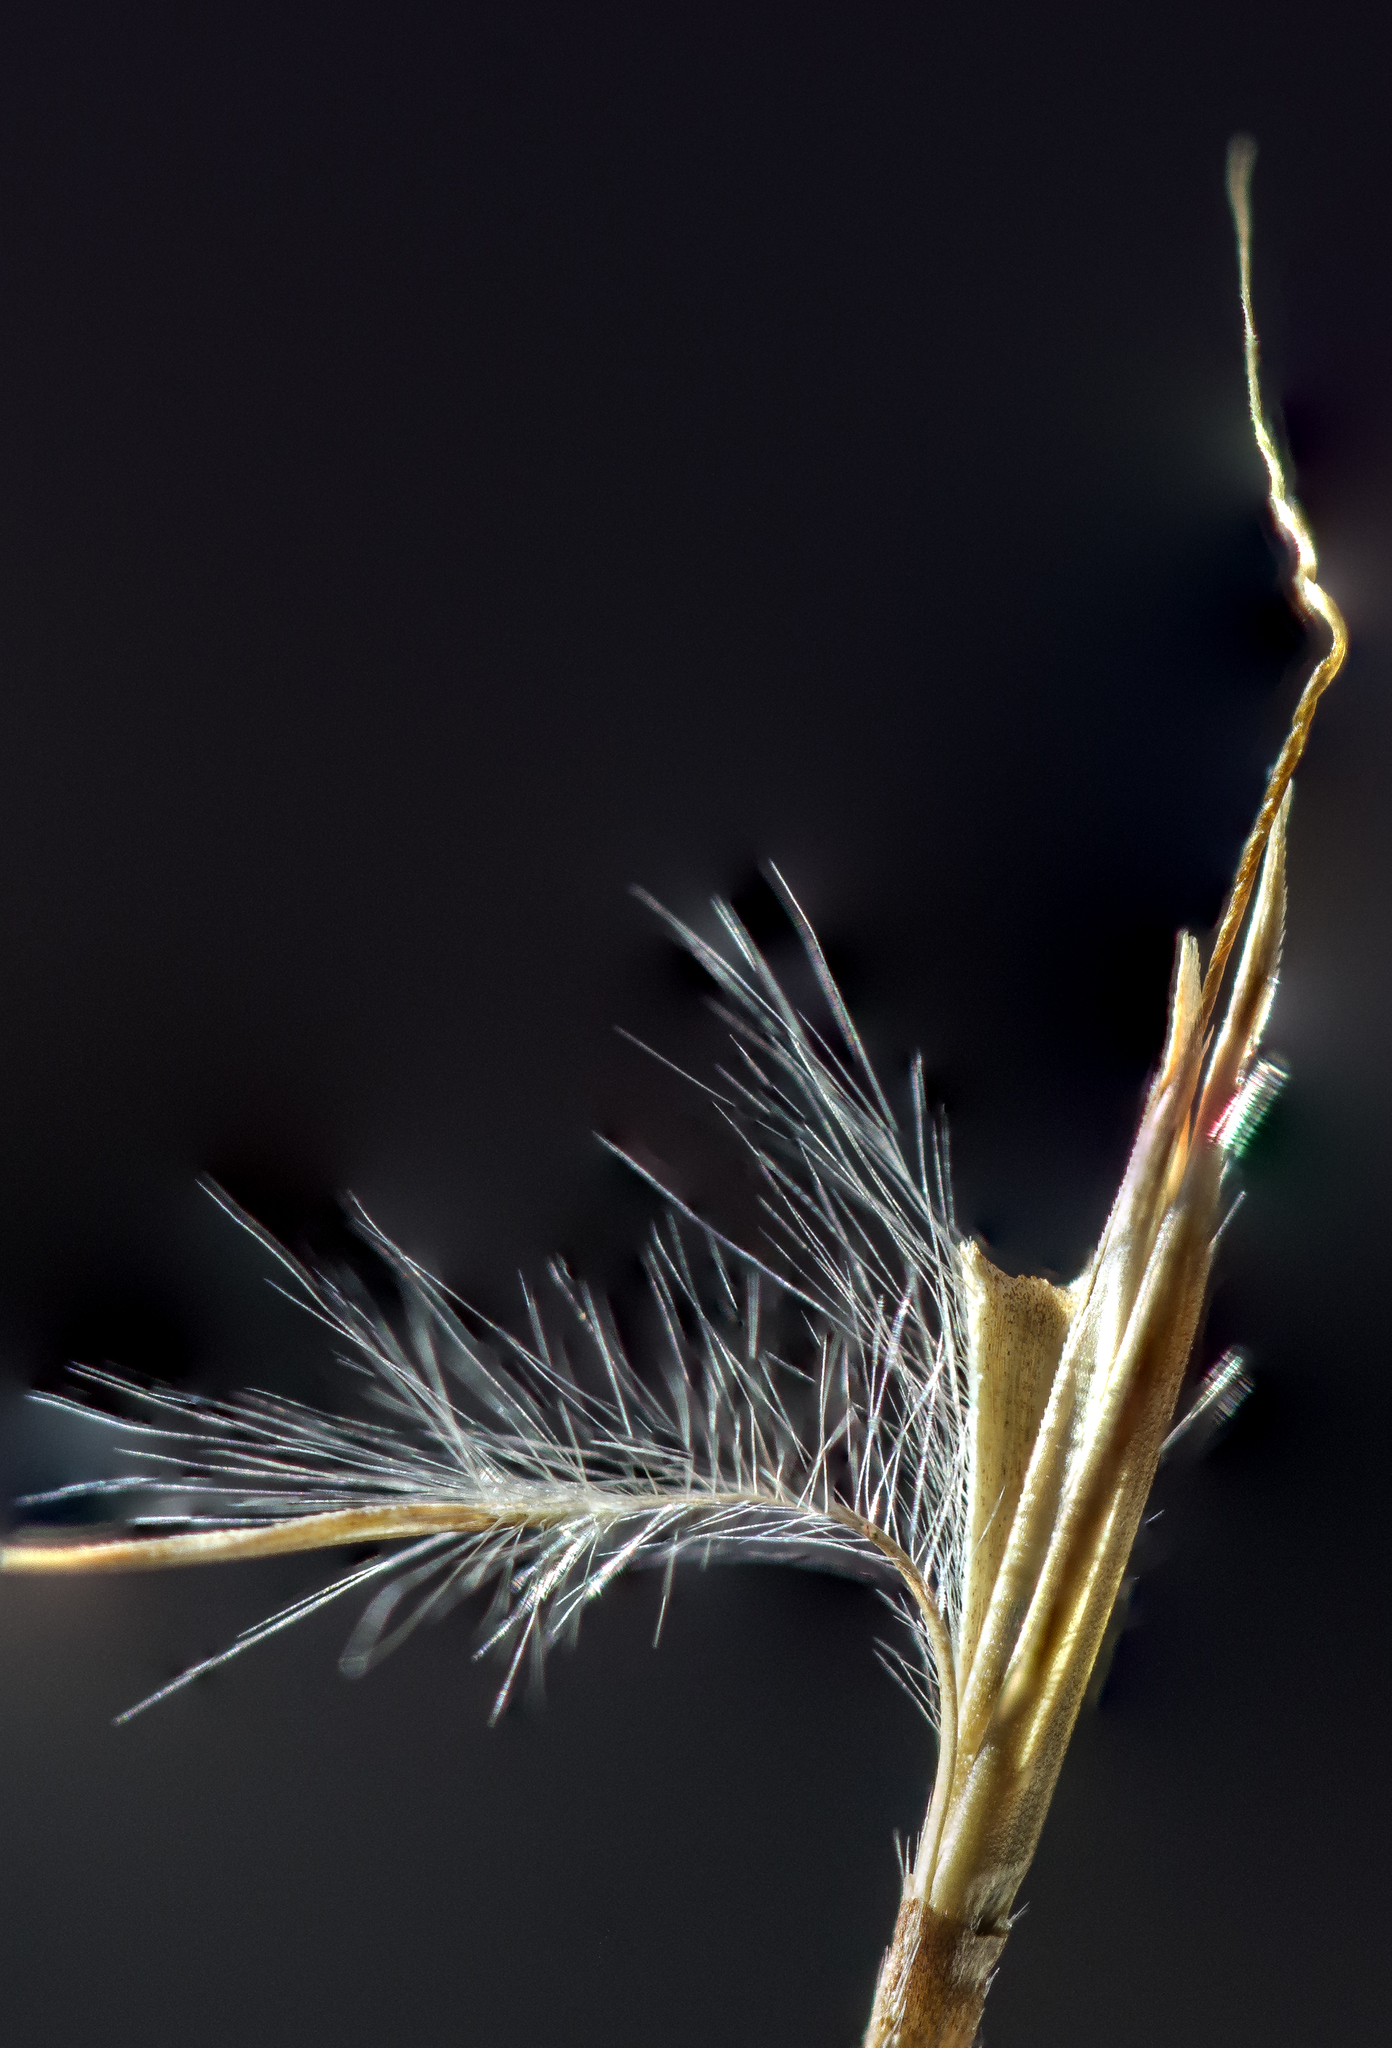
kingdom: Plantae
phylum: Tracheophyta
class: Liliopsida
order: Poales
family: Poaceae
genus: Schizachyrium
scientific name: Schizachyrium scoparium
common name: Little bluestem
